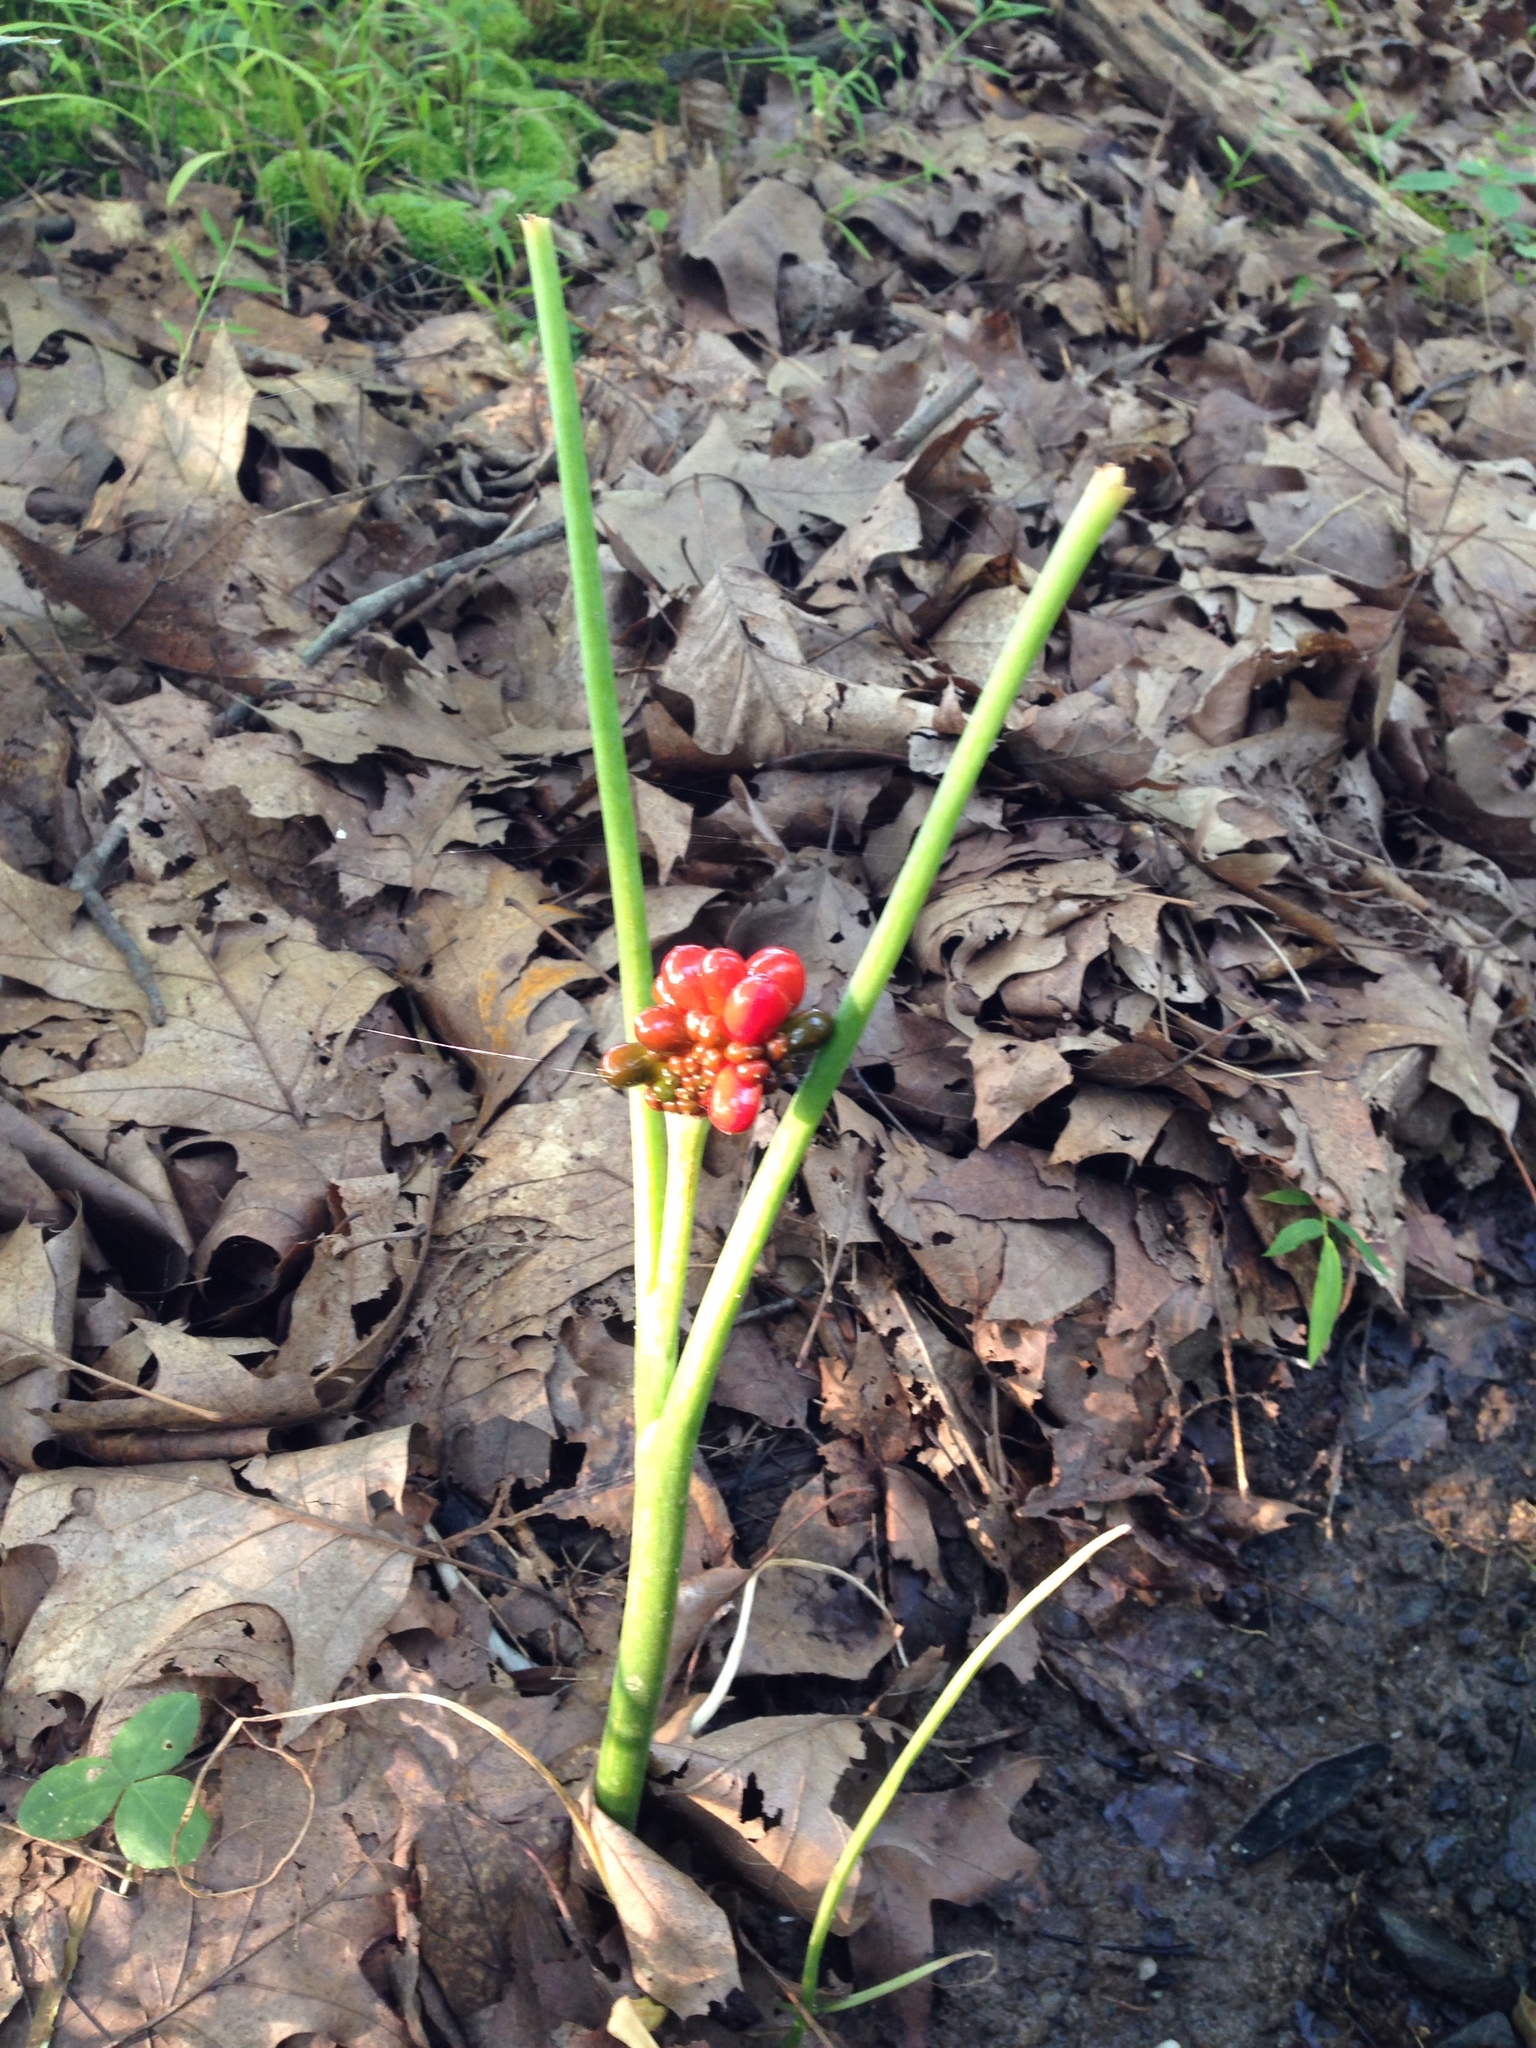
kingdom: Plantae
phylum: Tracheophyta
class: Liliopsida
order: Alismatales
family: Araceae
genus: Arisaema
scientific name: Arisaema triphyllum
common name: Jack-in-the-pulpit
